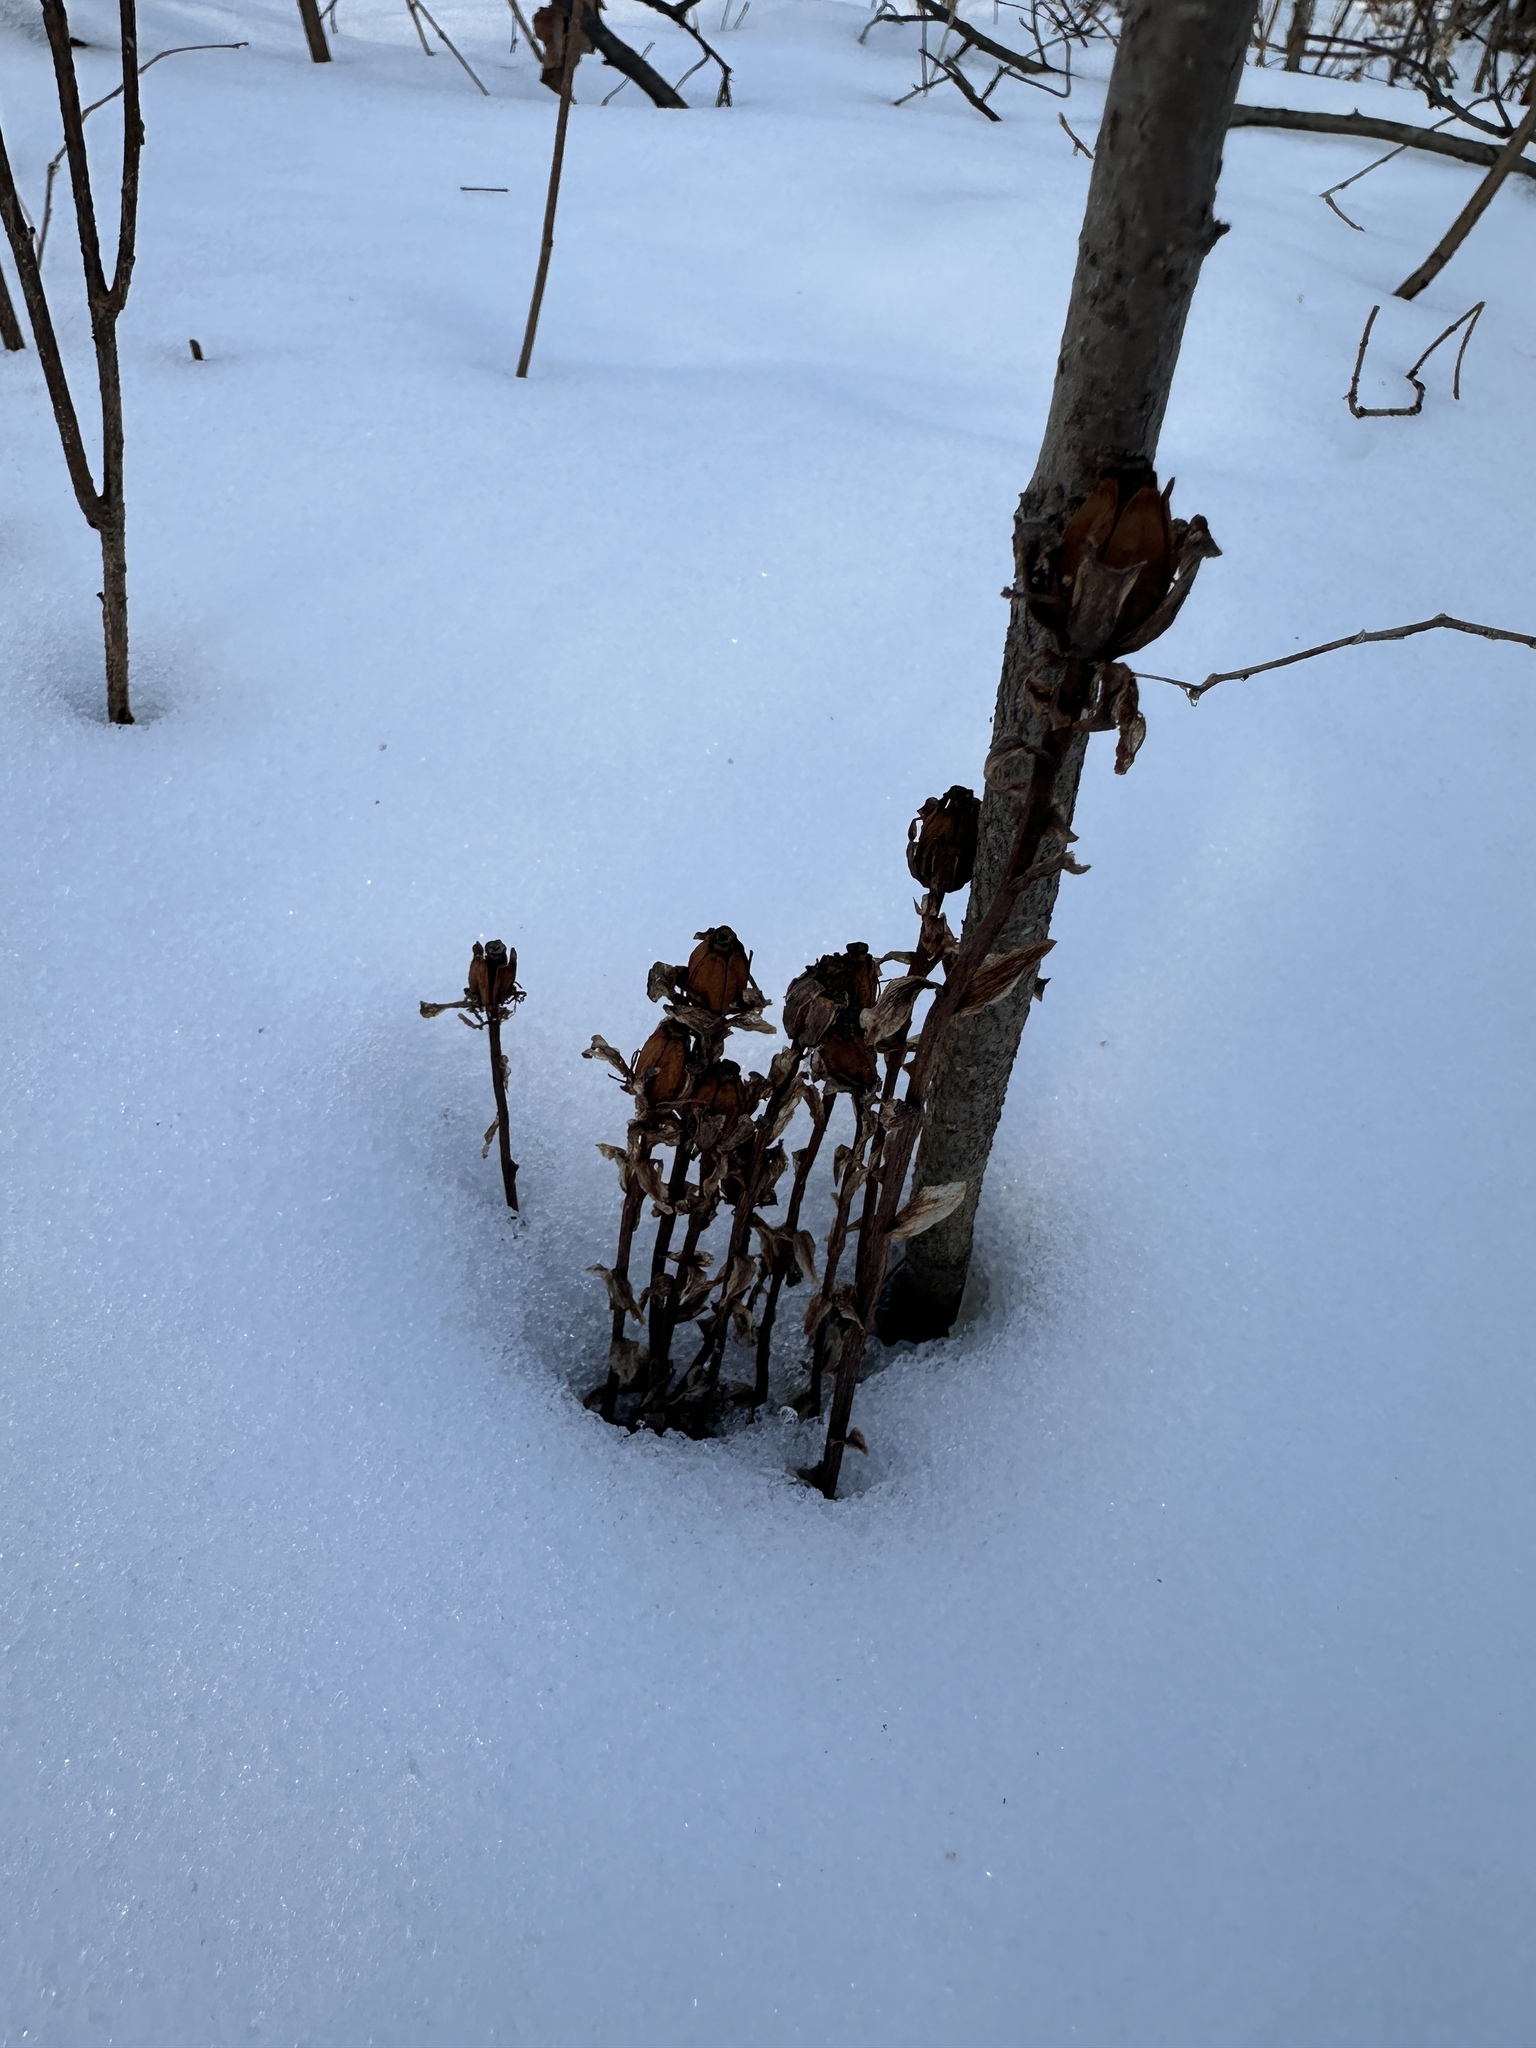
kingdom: Plantae
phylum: Tracheophyta
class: Magnoliopsida
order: Ericales
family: Ericaceae
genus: Monotropa
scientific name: Monotropa uniflora
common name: Convulsion root
